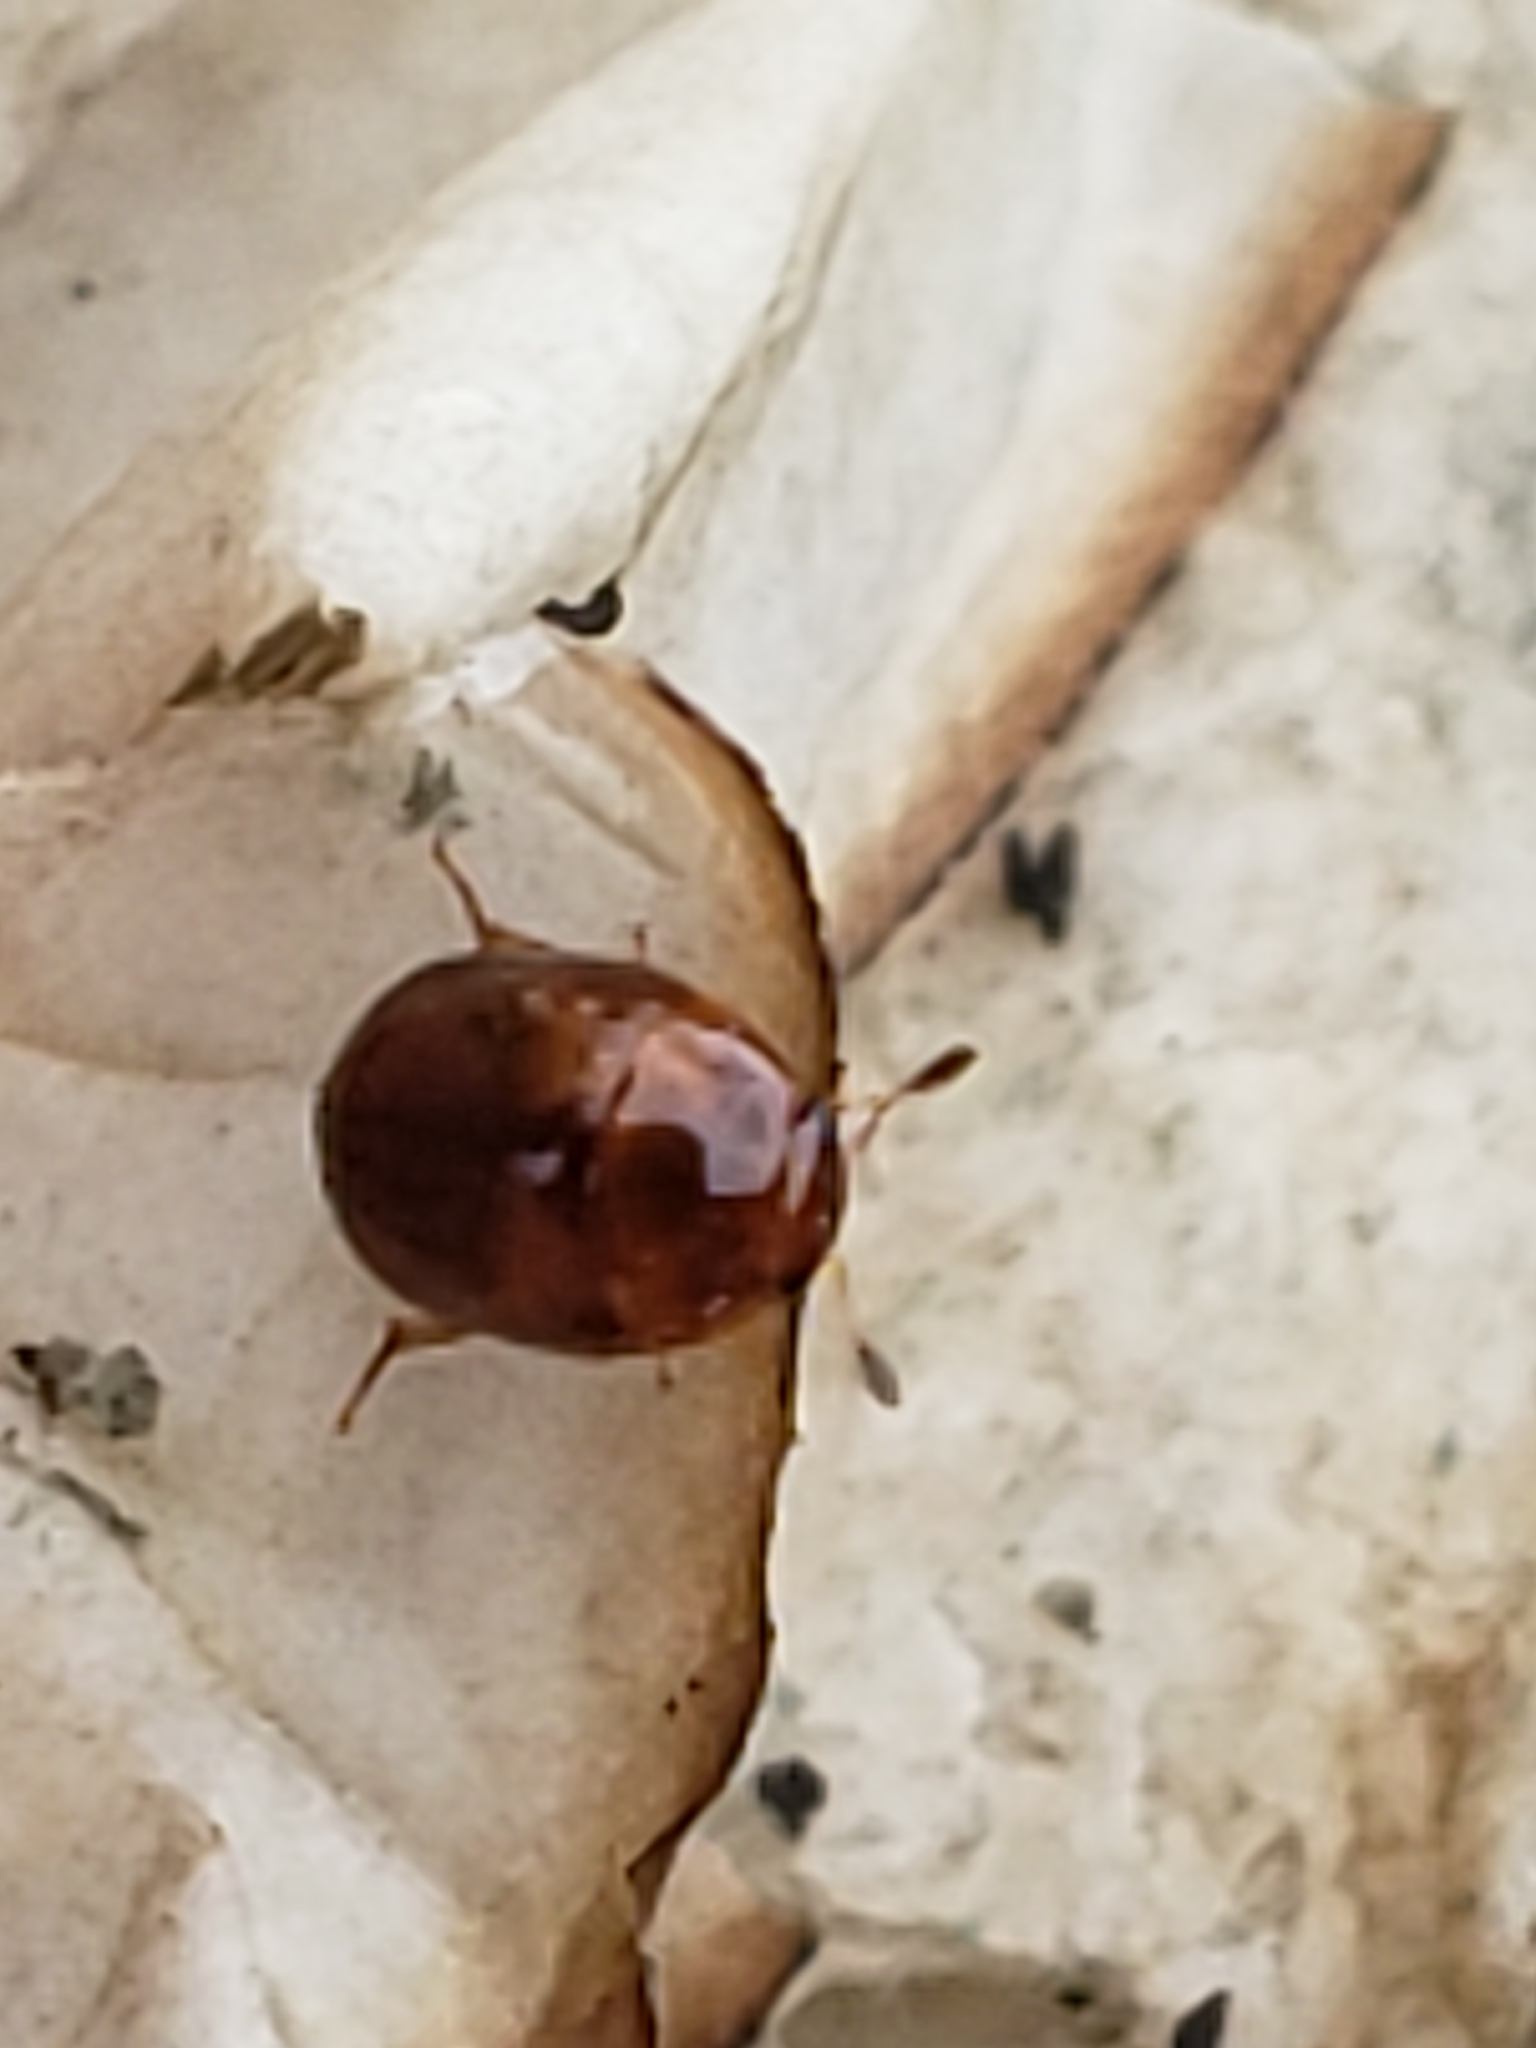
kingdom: Animalia
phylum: Arthropoda
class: Insecta
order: Coleoptera
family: Nitidulidae
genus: Pallodes
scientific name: Pallodes pallidus
